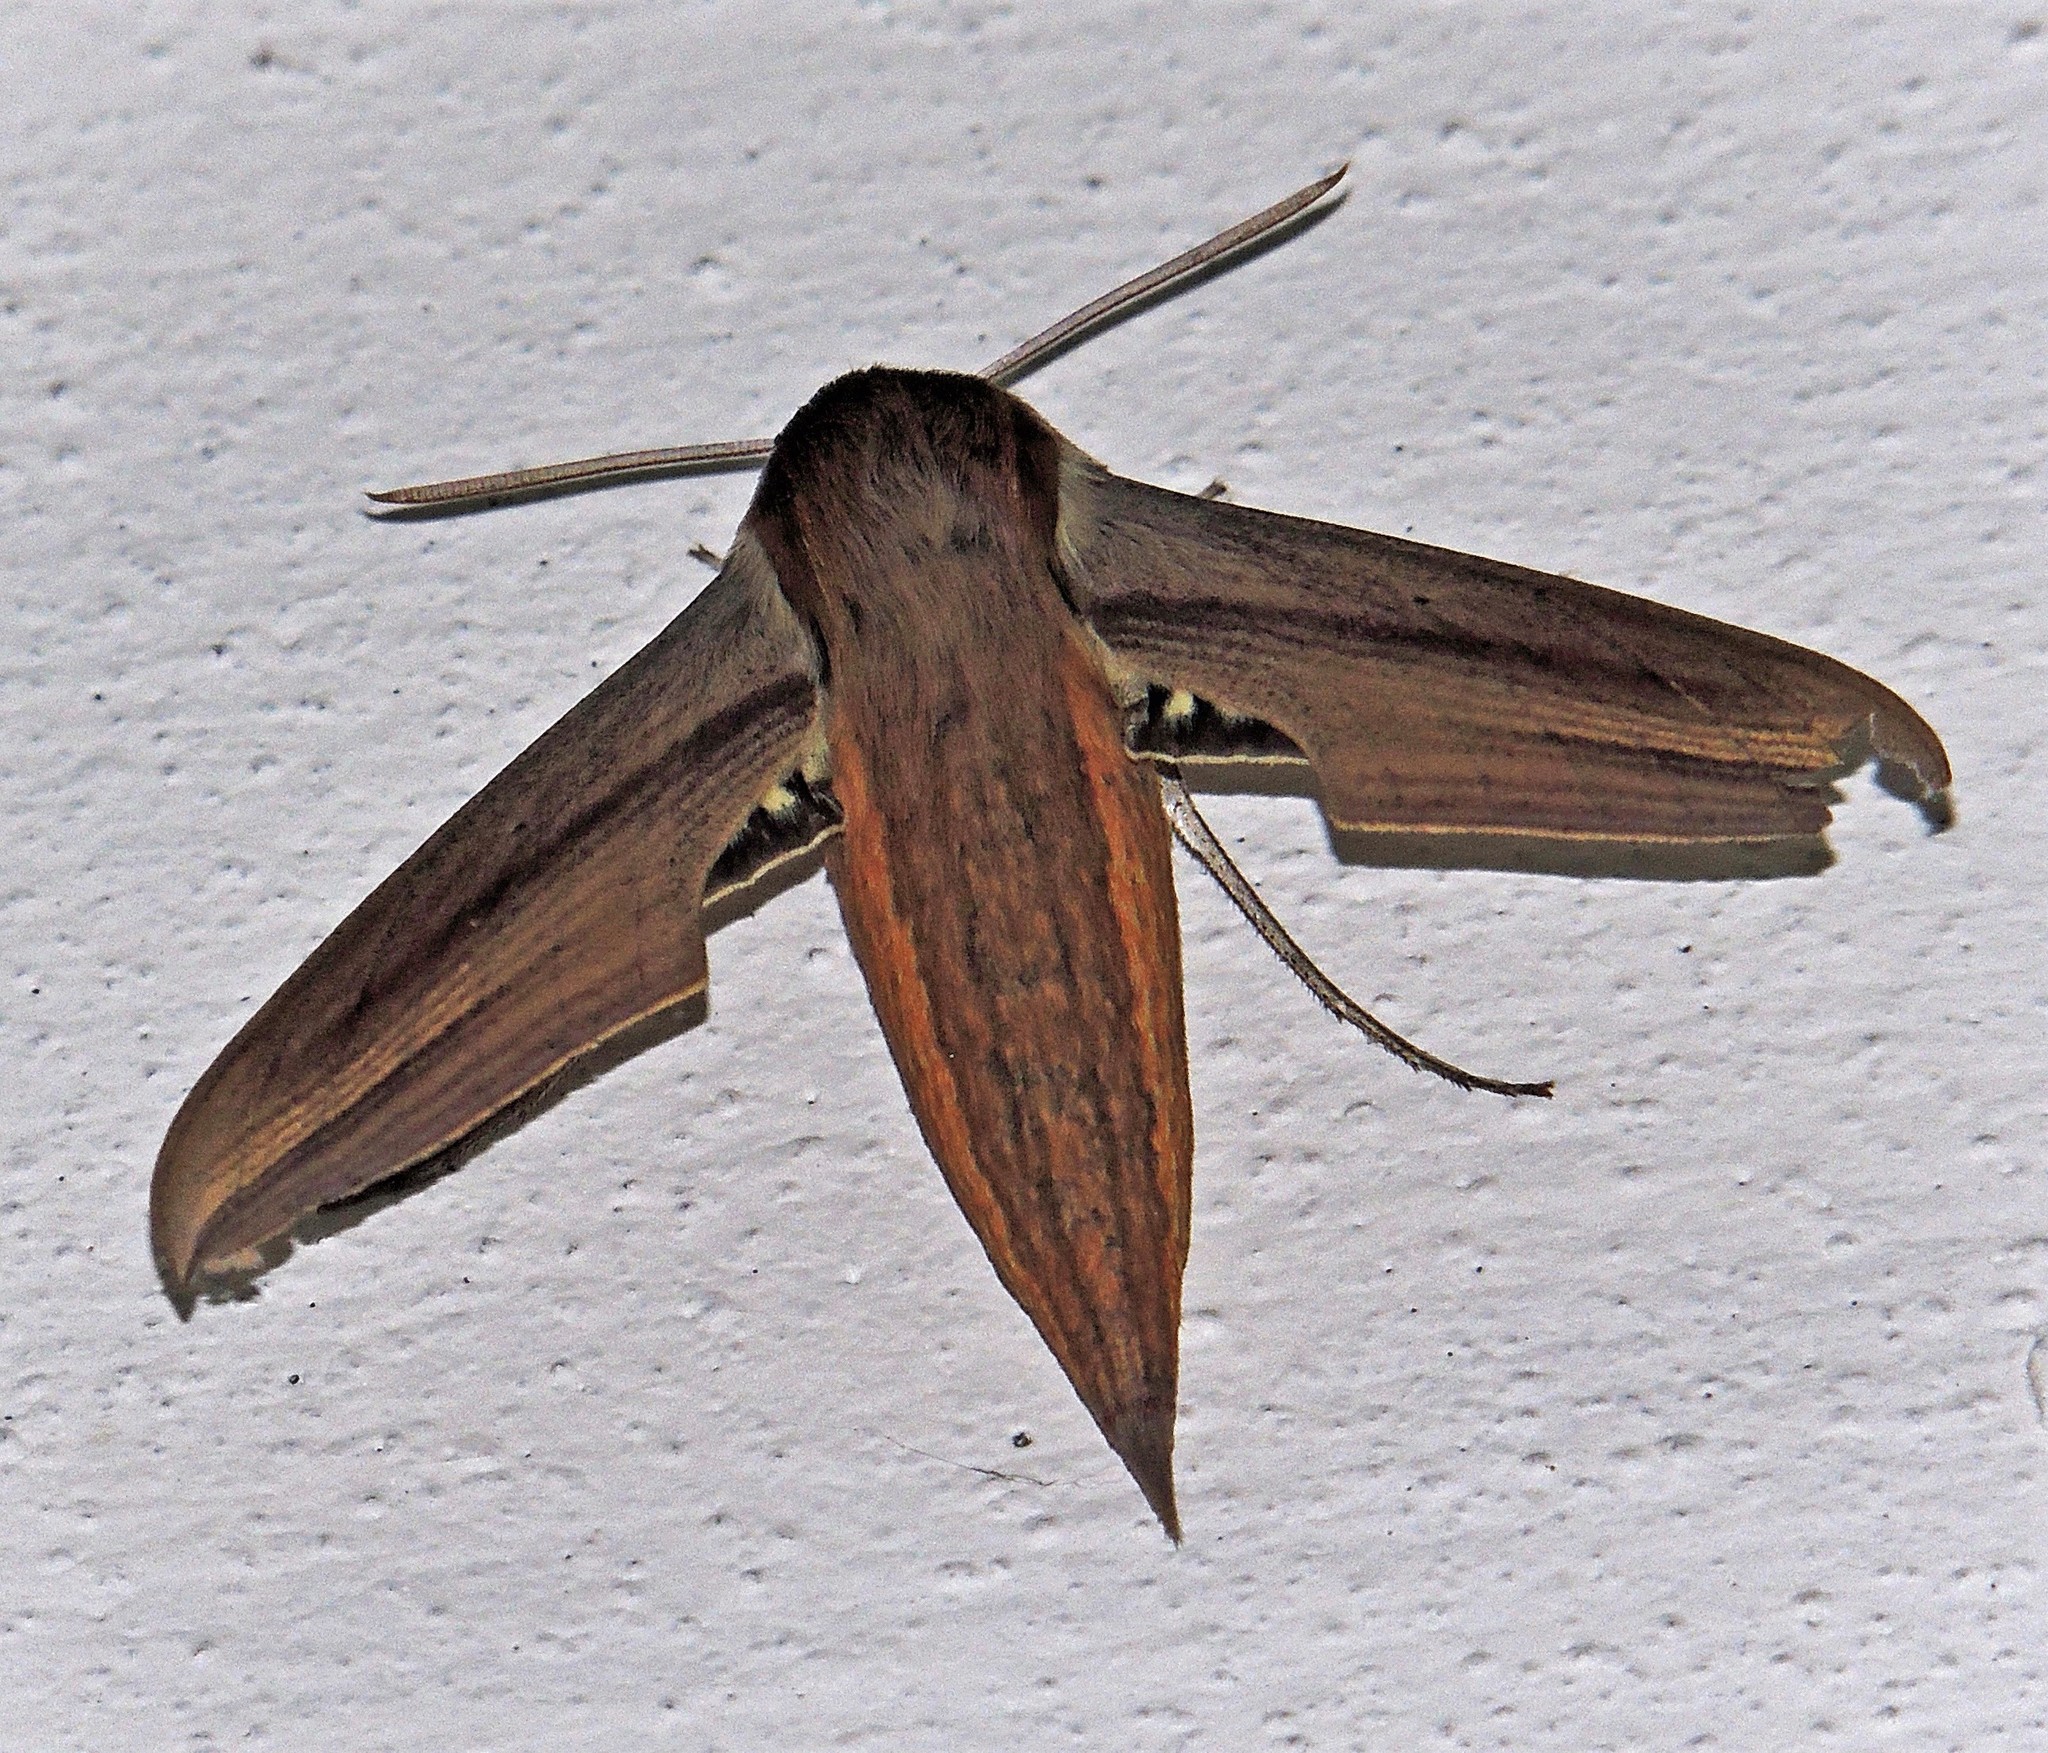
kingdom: Animalia
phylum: Arthropoda
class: Insecta
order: Lepidoptera
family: Sphingidae
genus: Xylophanes
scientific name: Xylophanes tersa
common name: Tersa sphinx
